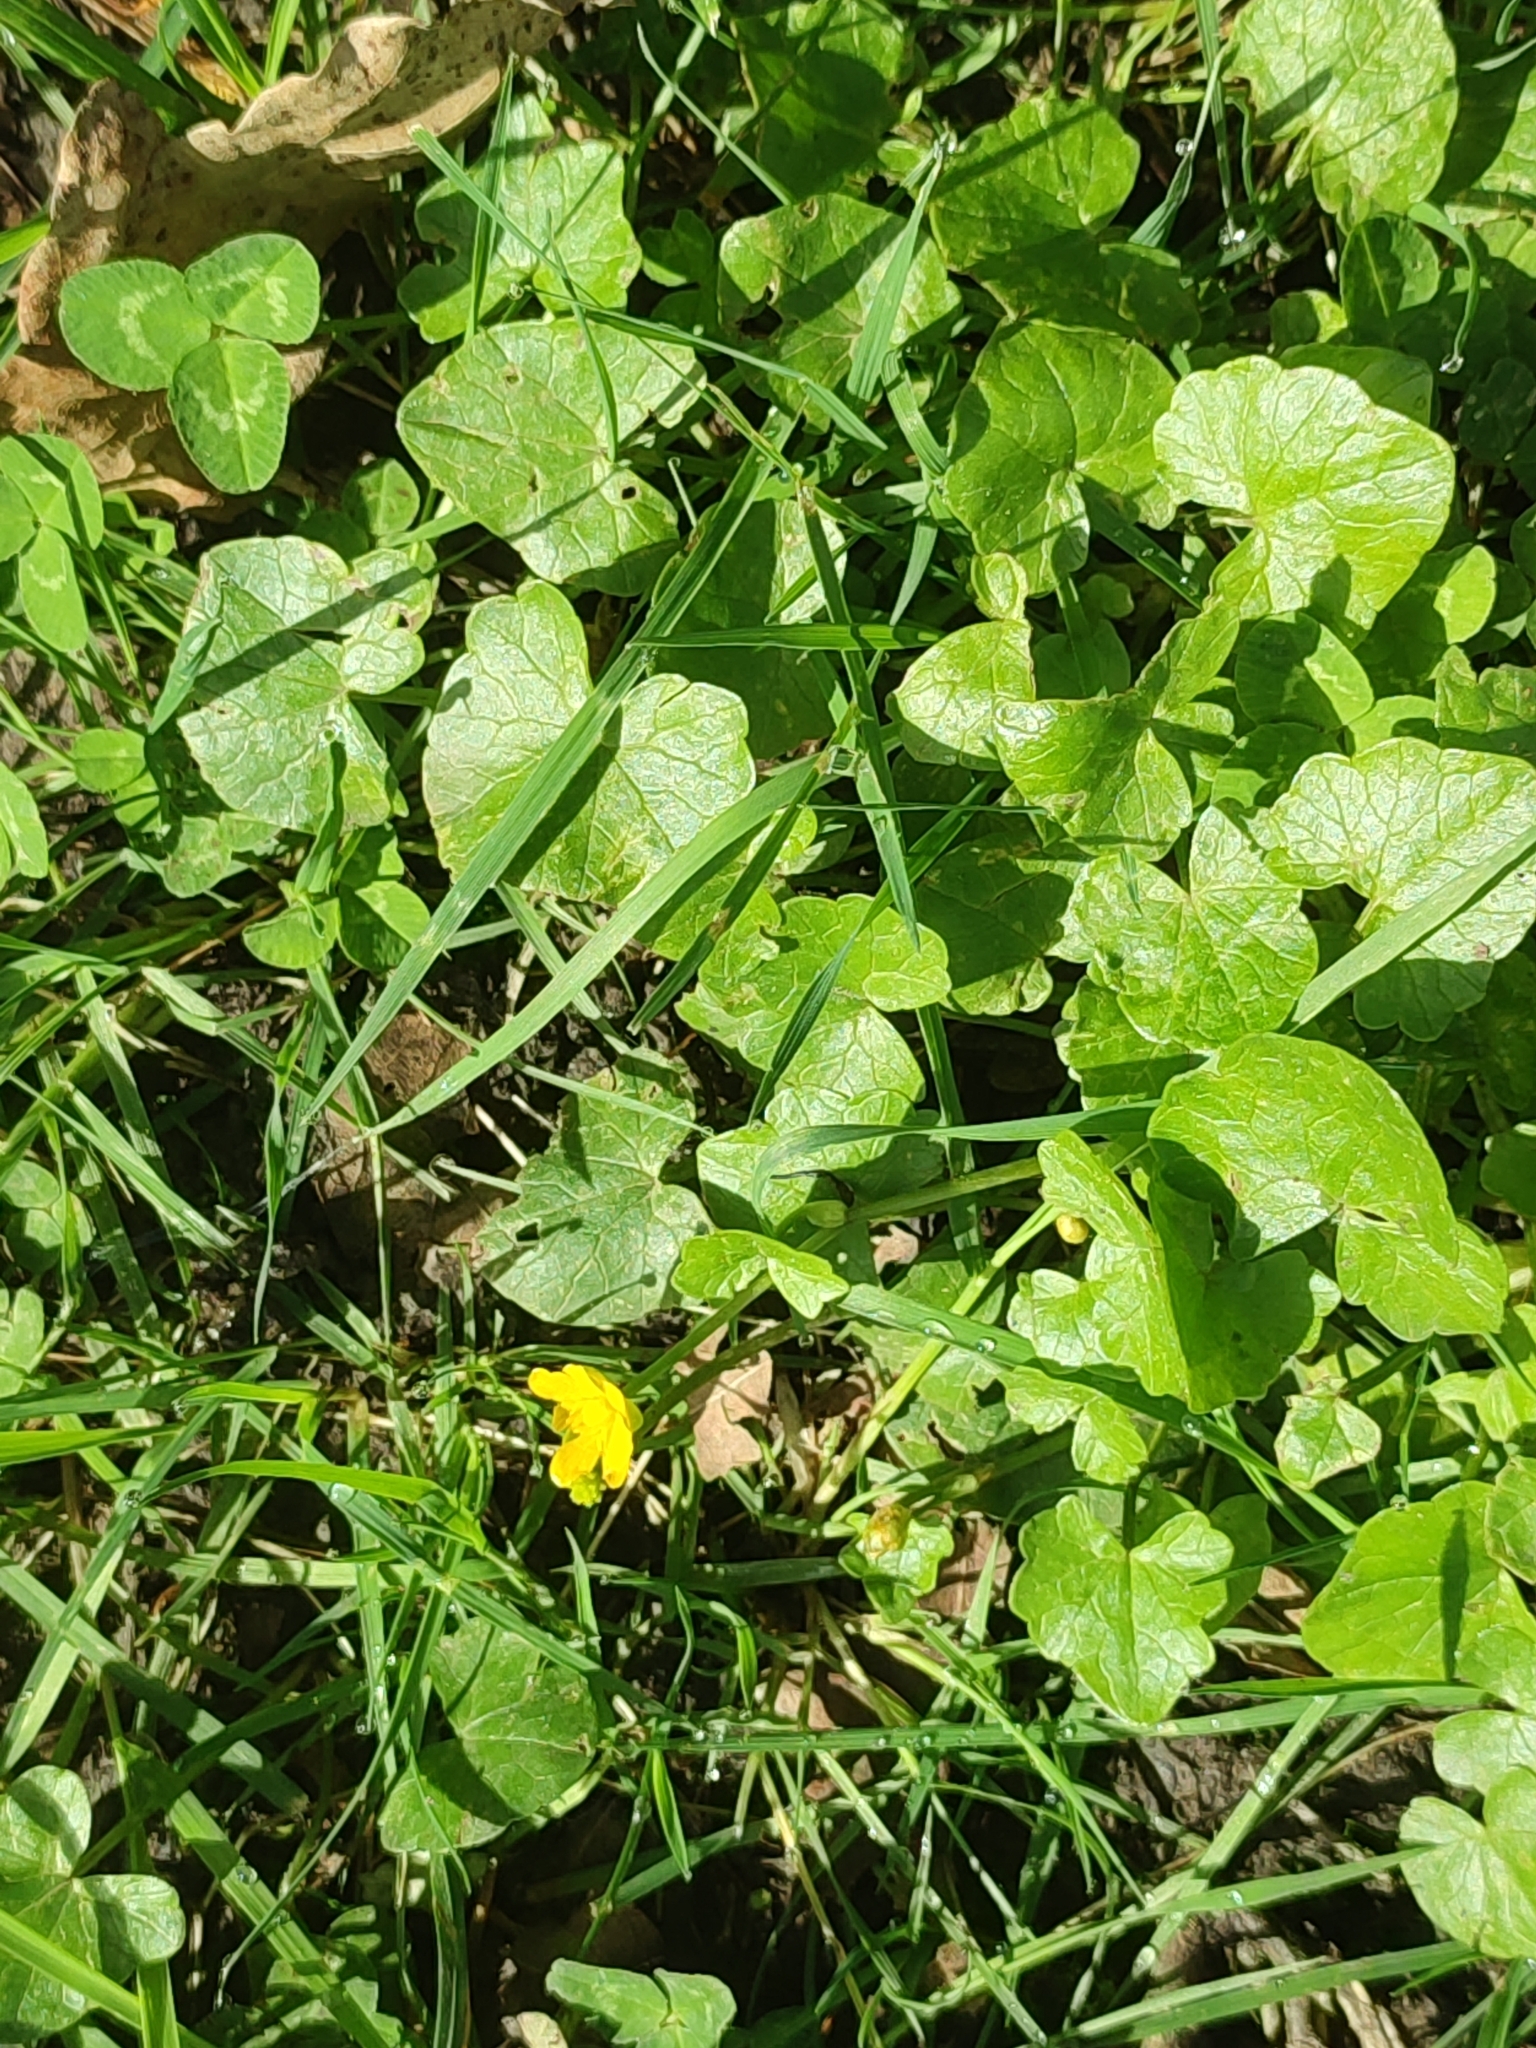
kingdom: Plantae
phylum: Tracheophyta
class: Magnoliopsida
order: Ranunculales
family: Ranunculaceae
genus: Ficaria
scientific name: Ficaria verna
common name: Lesser celandine
